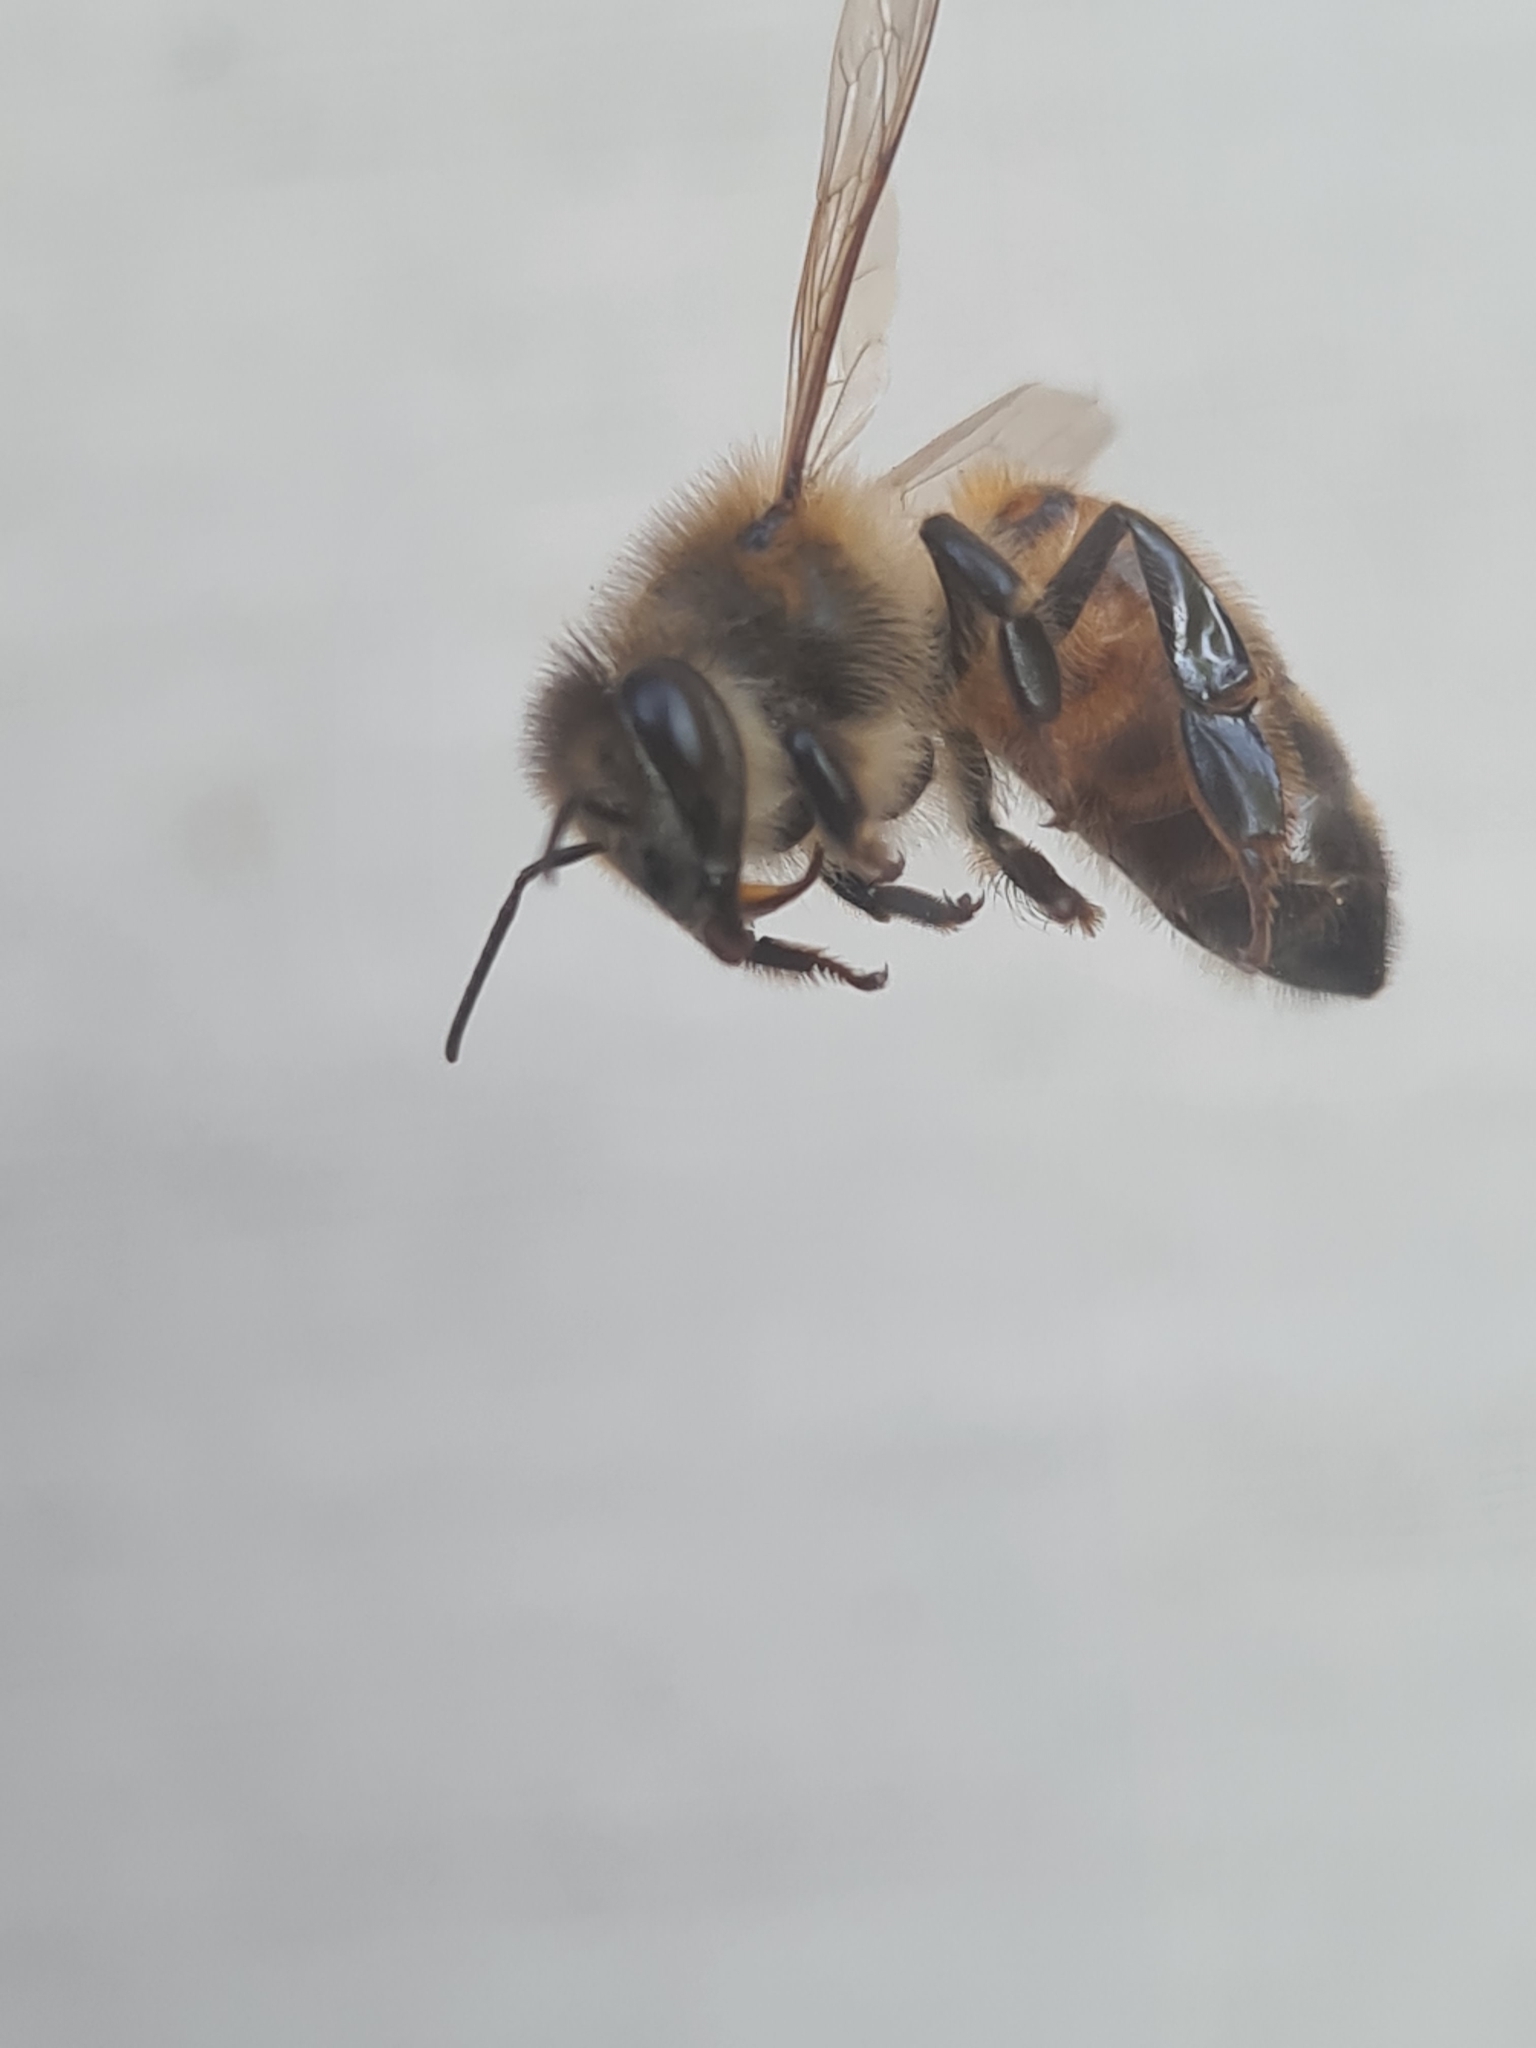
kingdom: Animalia
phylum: Arthropoda
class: Insecta
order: Hymenoptera
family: Apidae
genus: Apis
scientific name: Apis mellifera
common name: Honey bee
